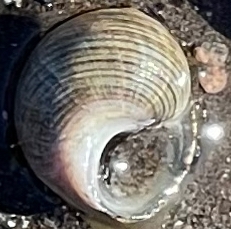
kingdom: Animalia
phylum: Mollusca
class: Gastropoda
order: Littorinimorpha
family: Littorinidae
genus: Littorina
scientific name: Littorina littorea
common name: Common periwinkle
